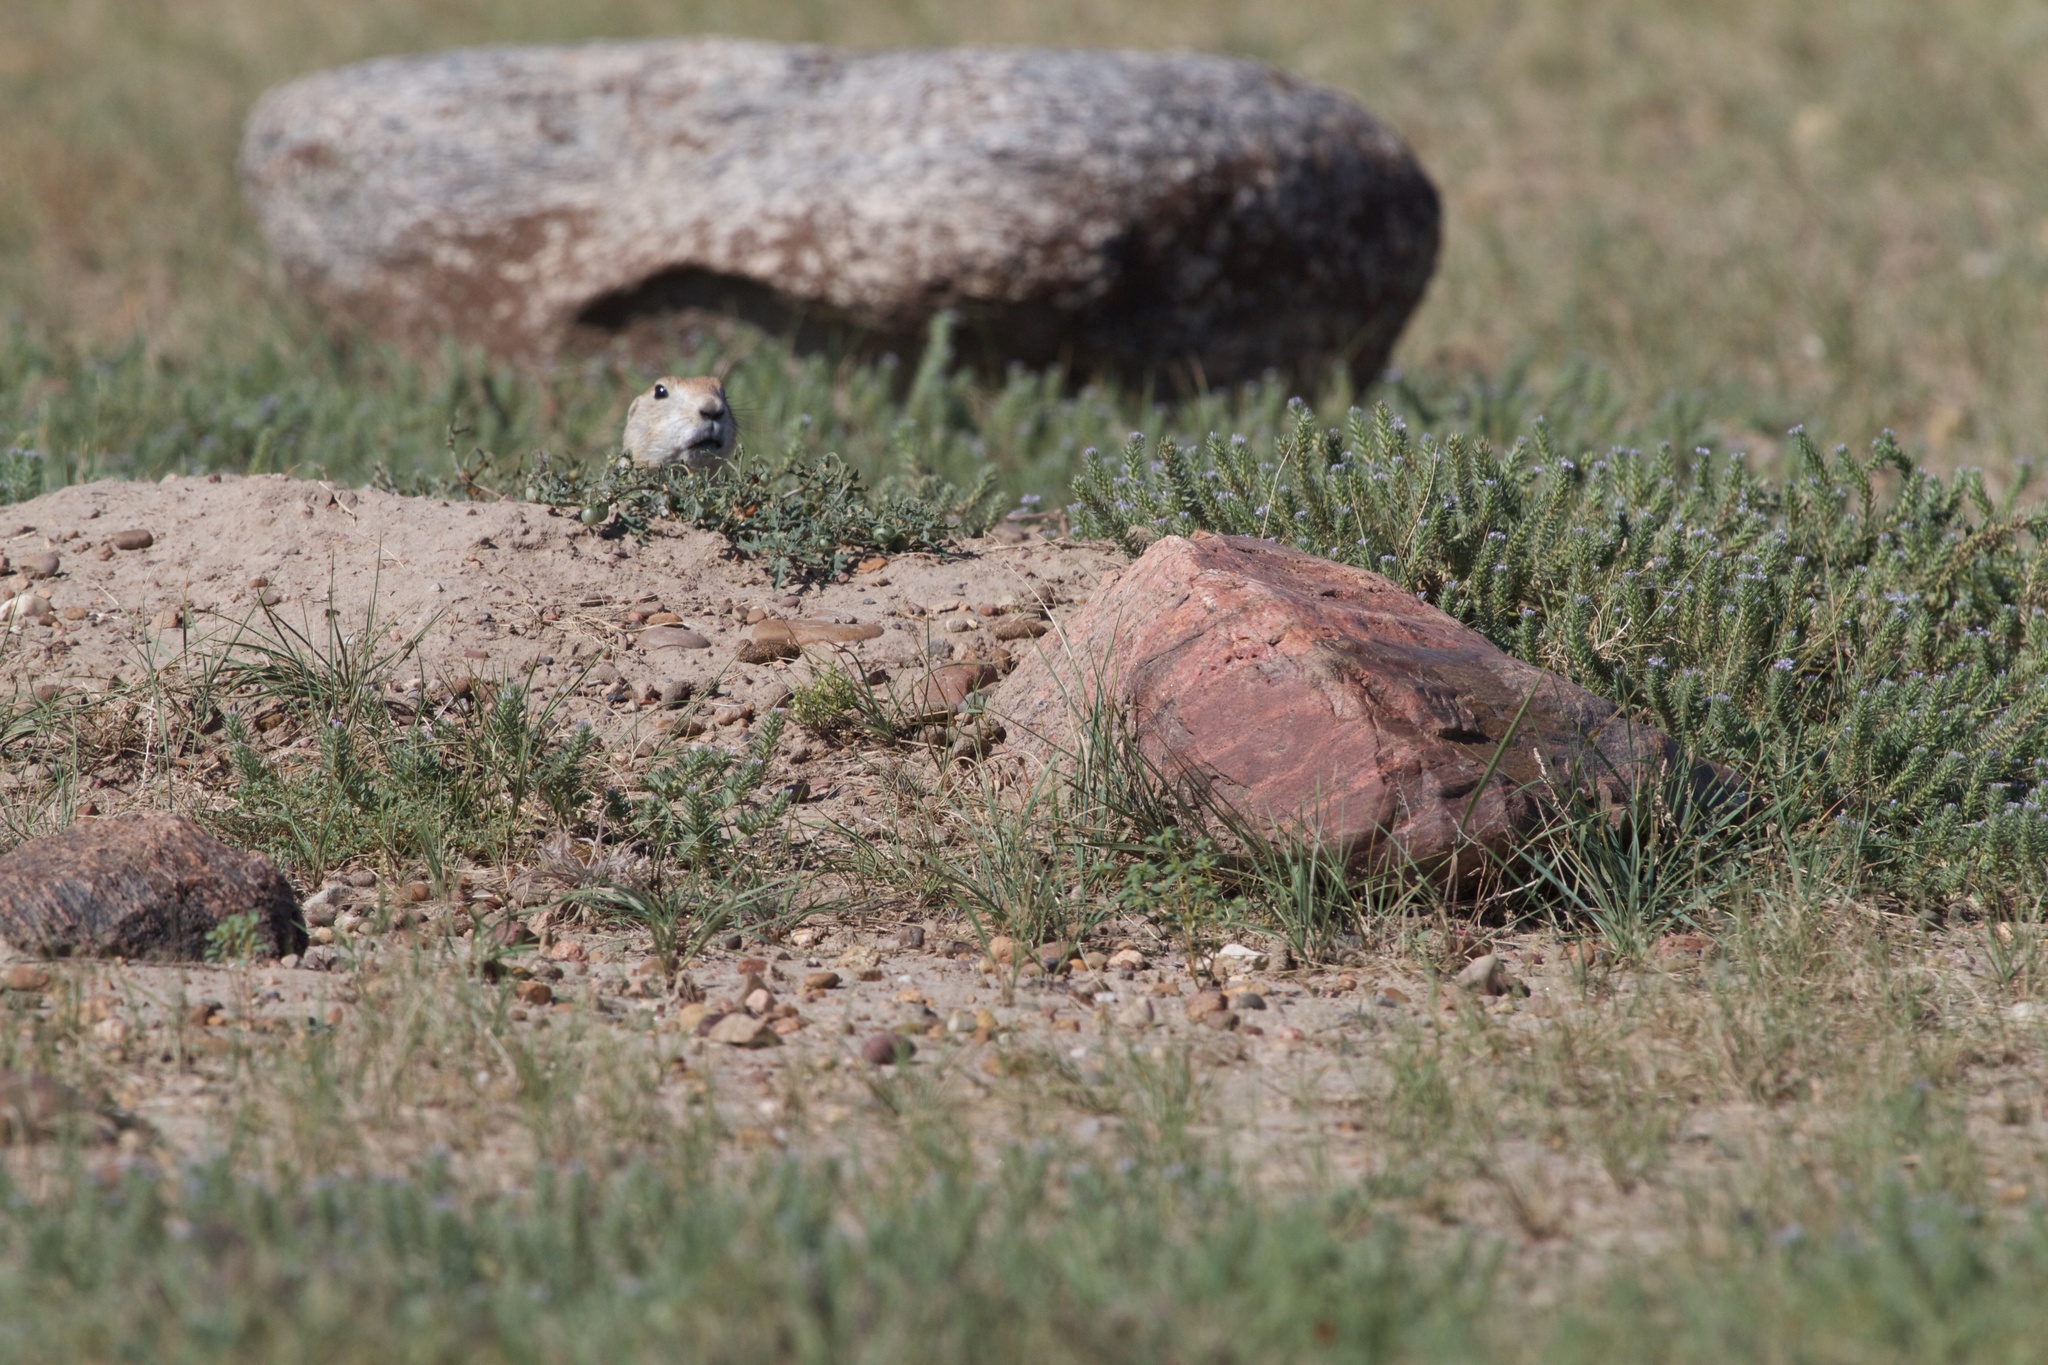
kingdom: Animalia
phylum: Chordata
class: Mammalia
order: Rodentia
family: Sciuridae
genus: Cynomys
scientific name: Cynomys ludovicianus
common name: Black-tailed prairie dog
